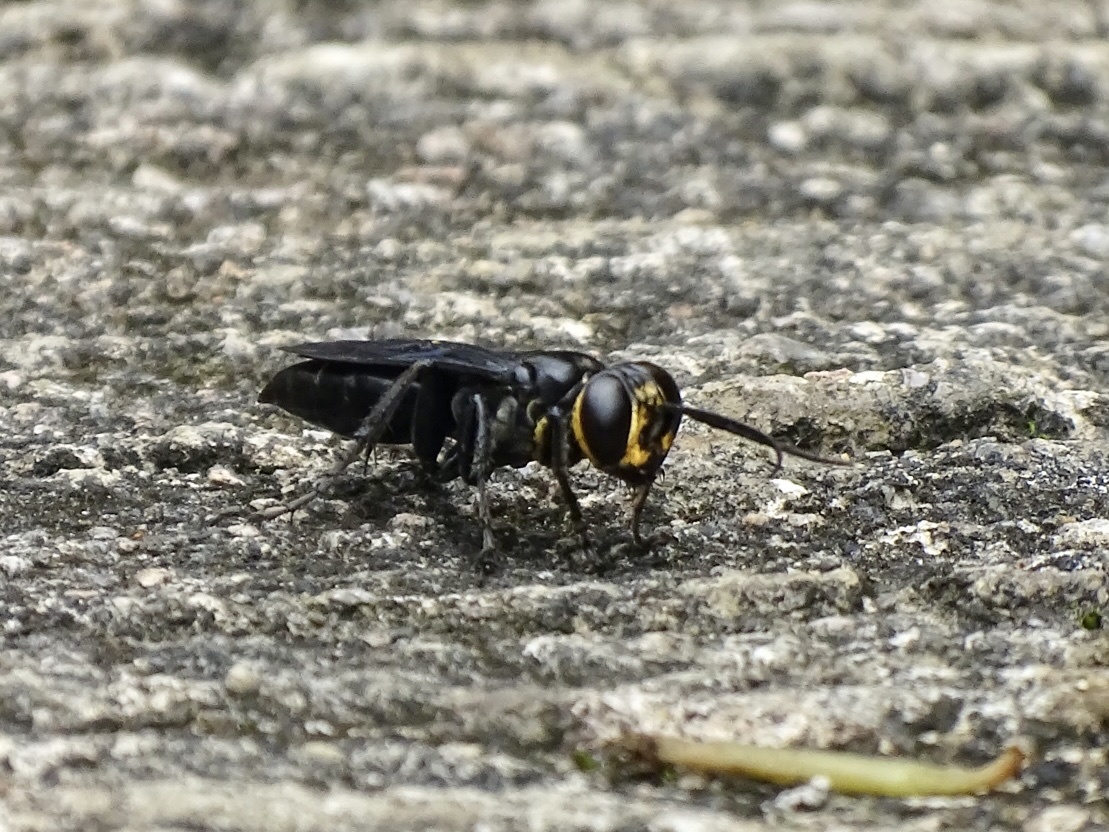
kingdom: Animalia
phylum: Arthropoda
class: Insecta
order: Hymenoptera
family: Crabronidae
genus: Liris
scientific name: Liris anthracinus
